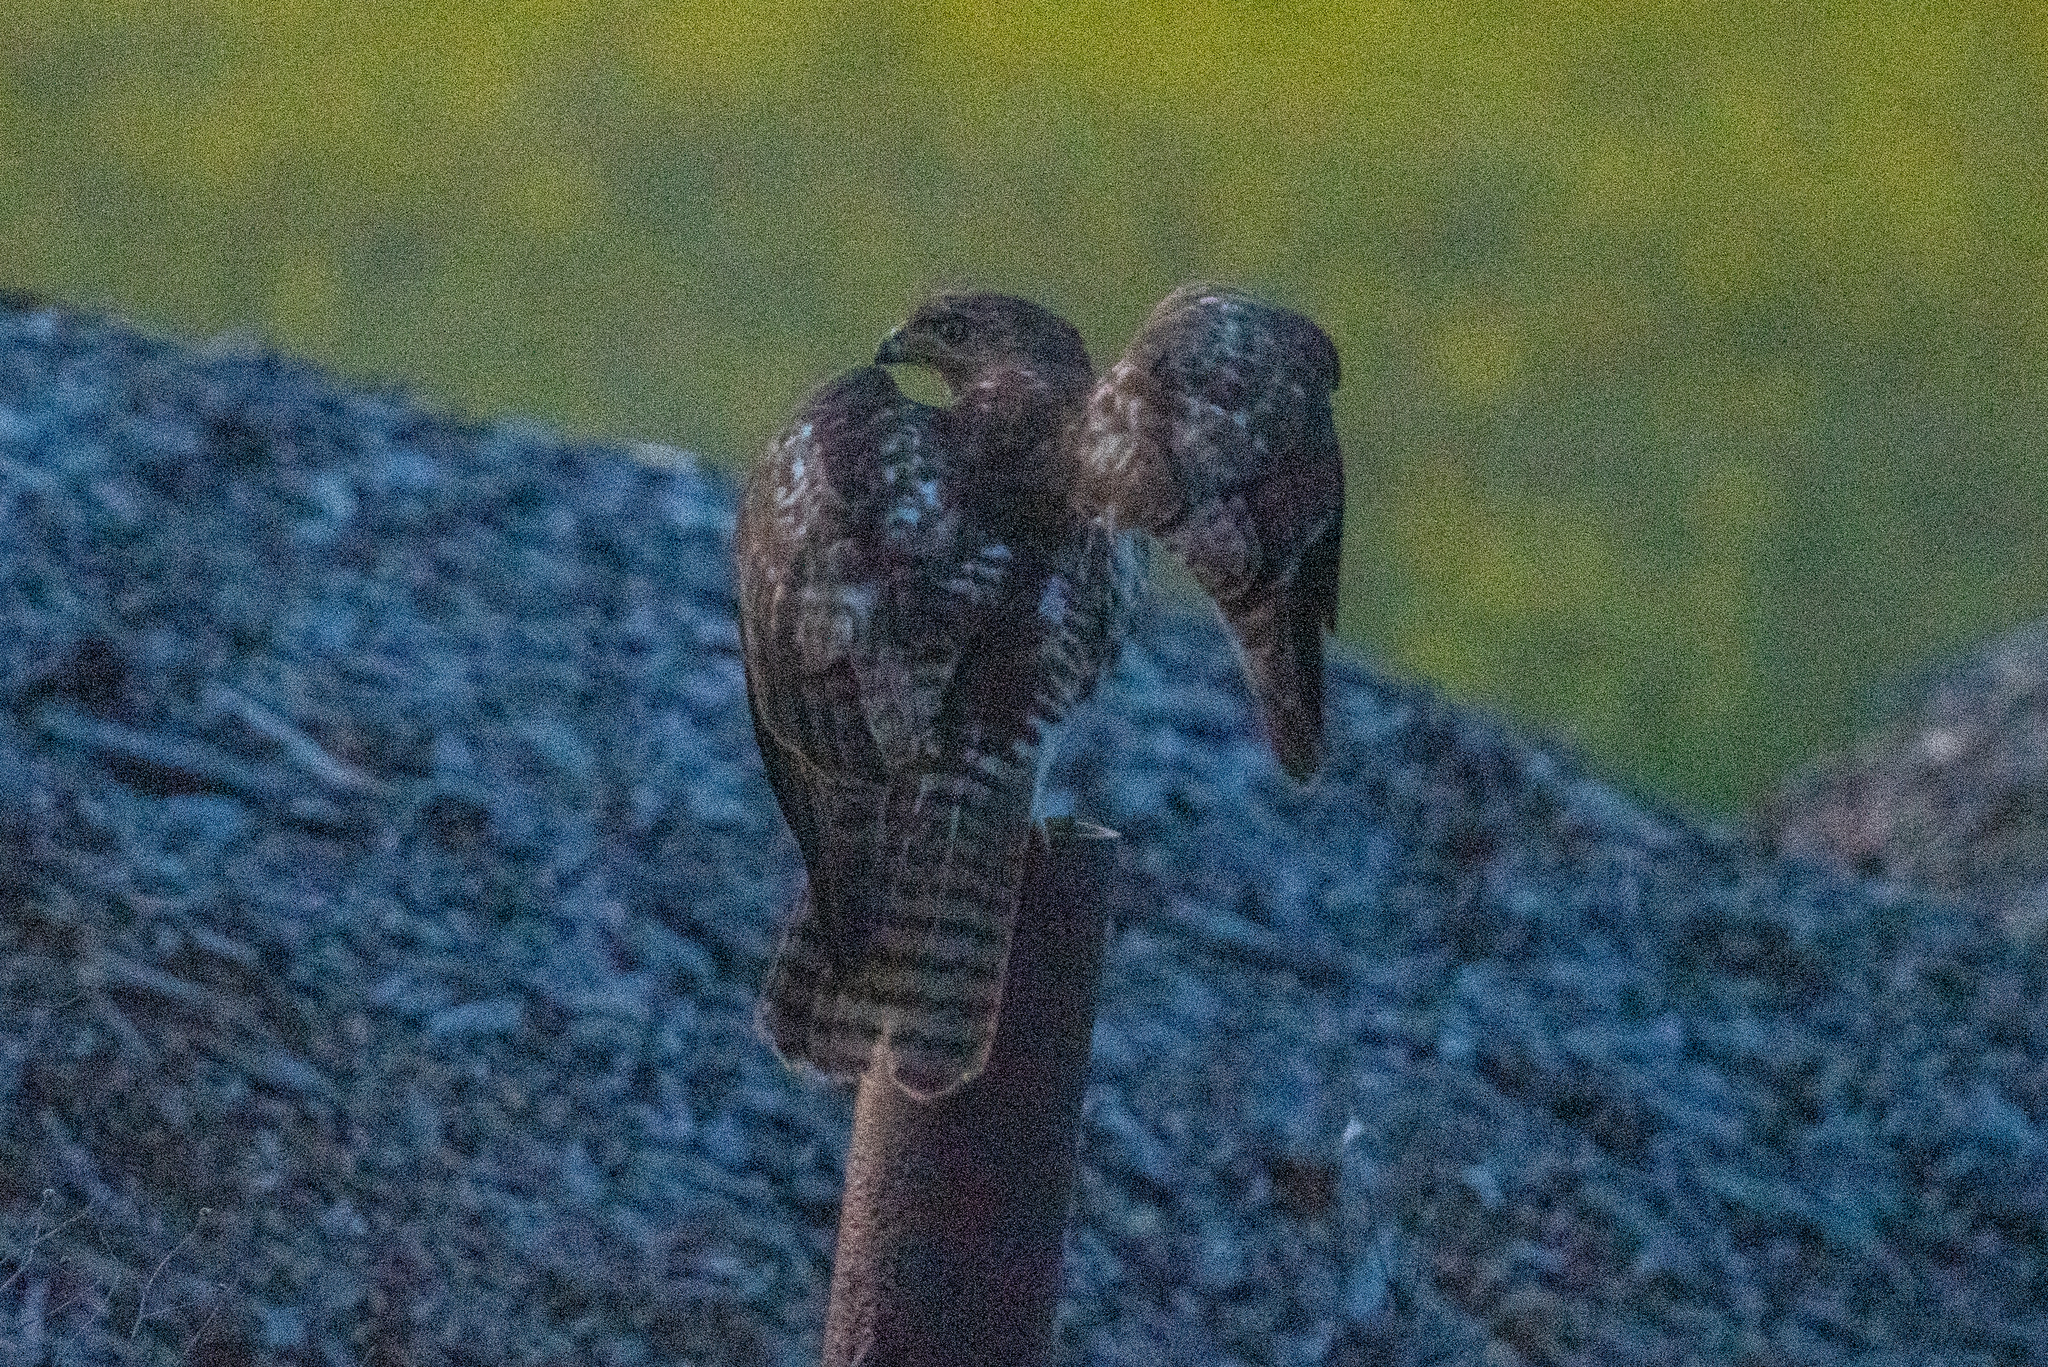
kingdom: Animalia
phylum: Chordata
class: Aves
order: Accipitriformes
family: Accipitridae
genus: Buteo
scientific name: Buteo jamaicensis
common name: Red-tailed hawk
